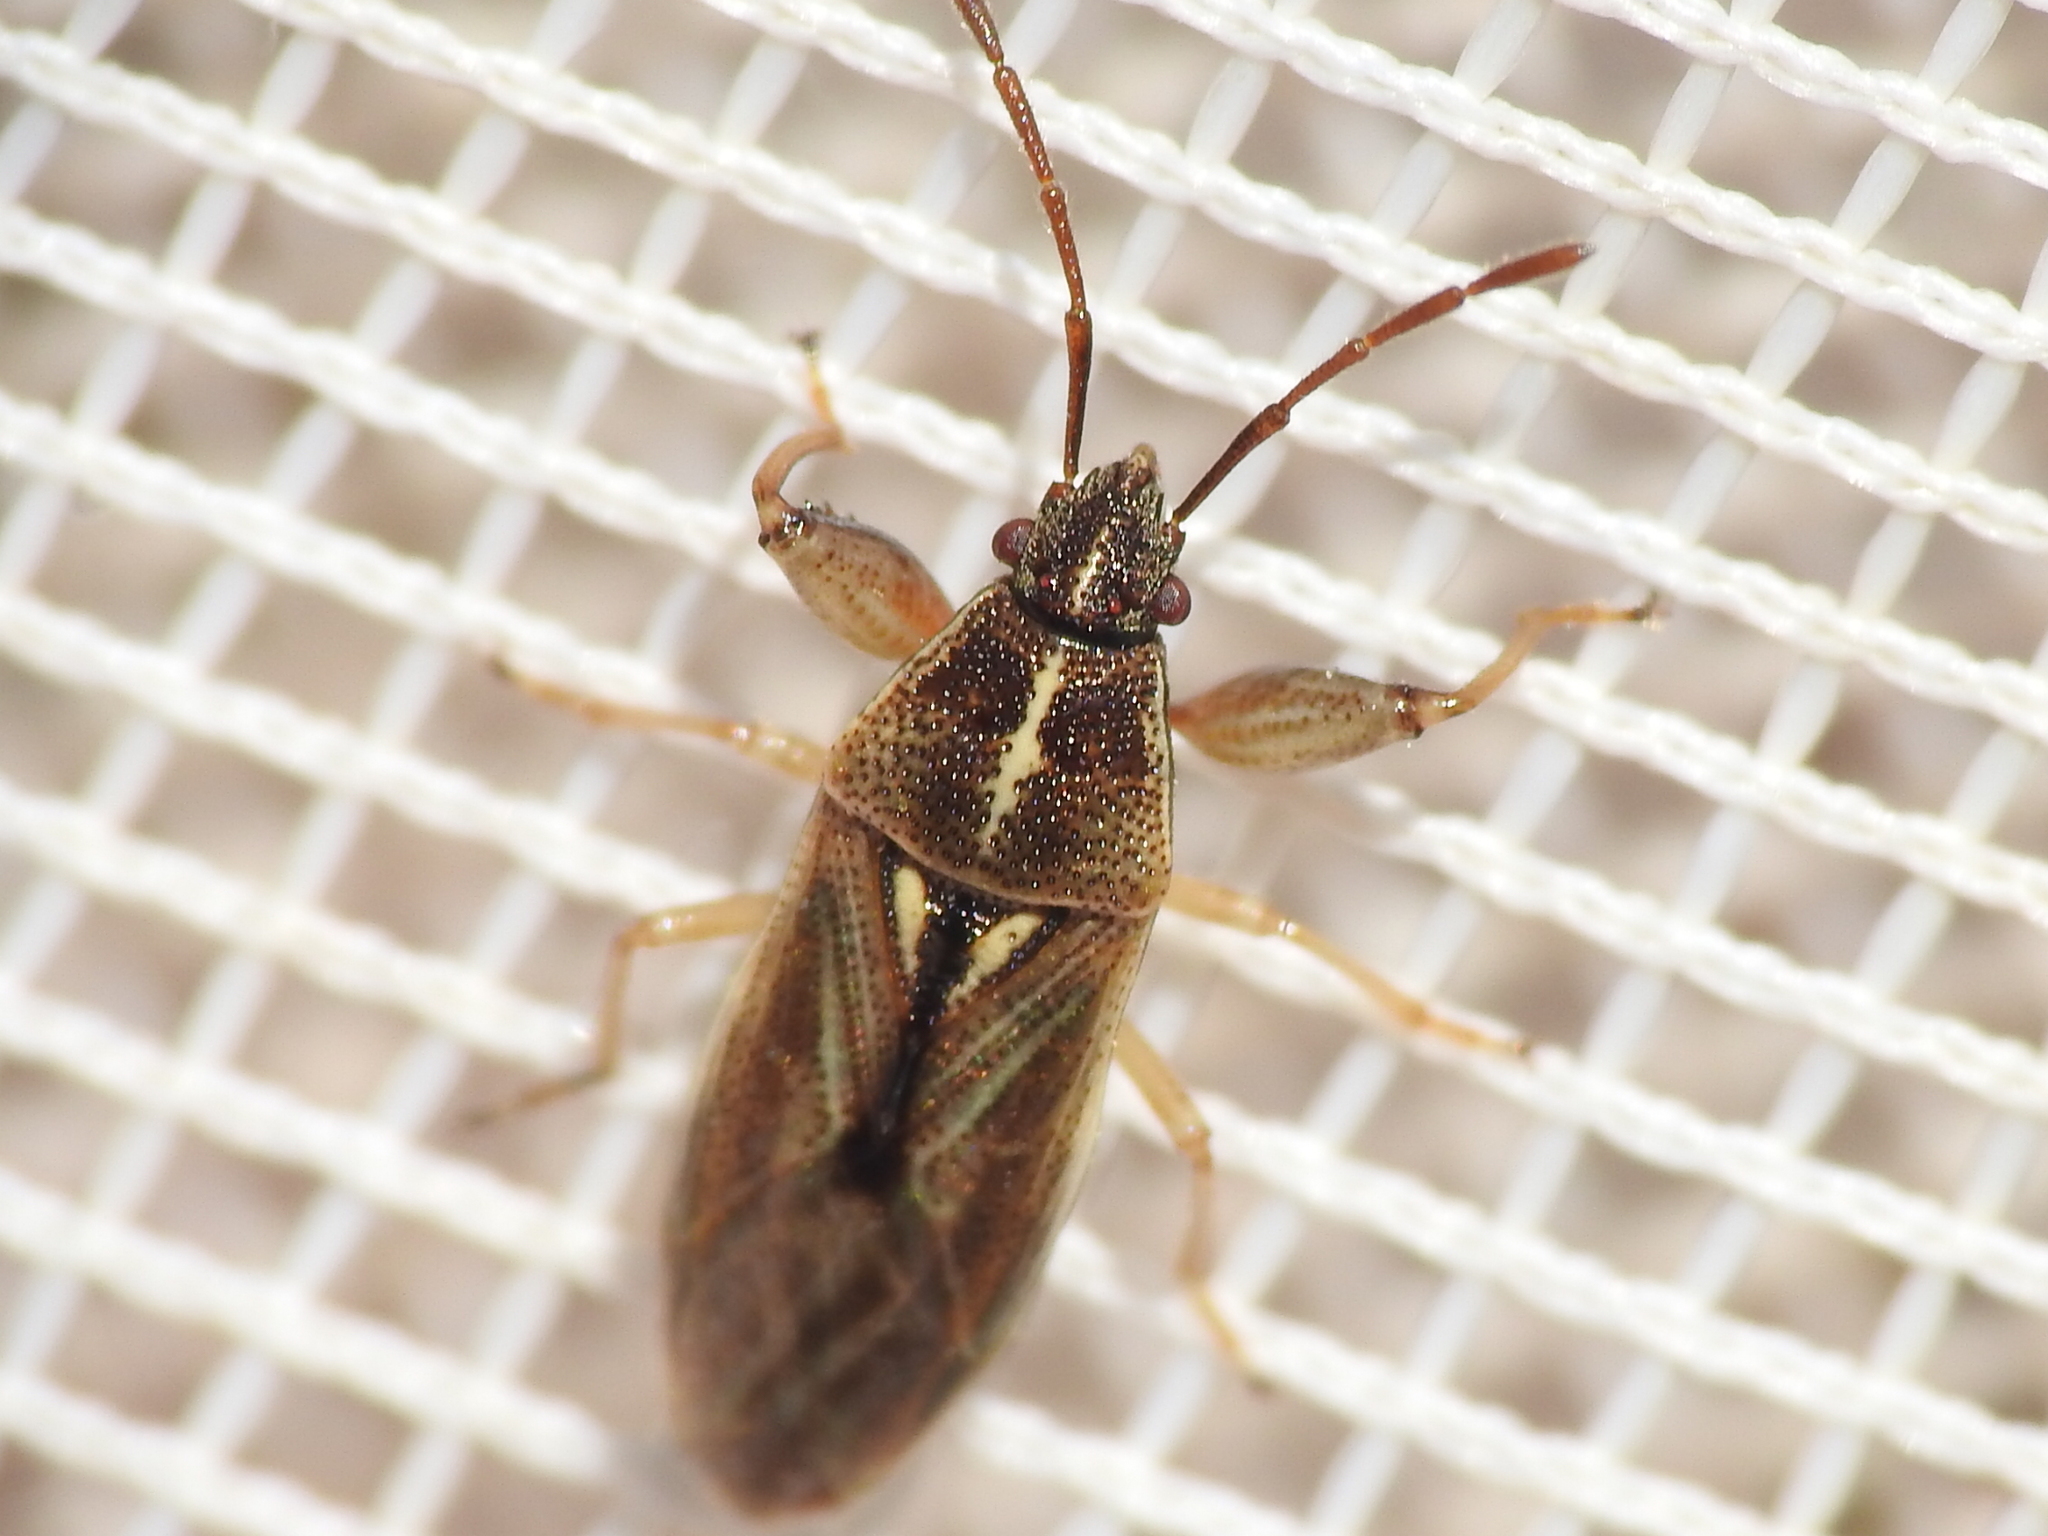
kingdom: Animalia
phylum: Arthropoda
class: Insecta
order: Hemiptera
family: Pachygronthidae
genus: Oedancala
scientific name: Oedancala dorsalis
